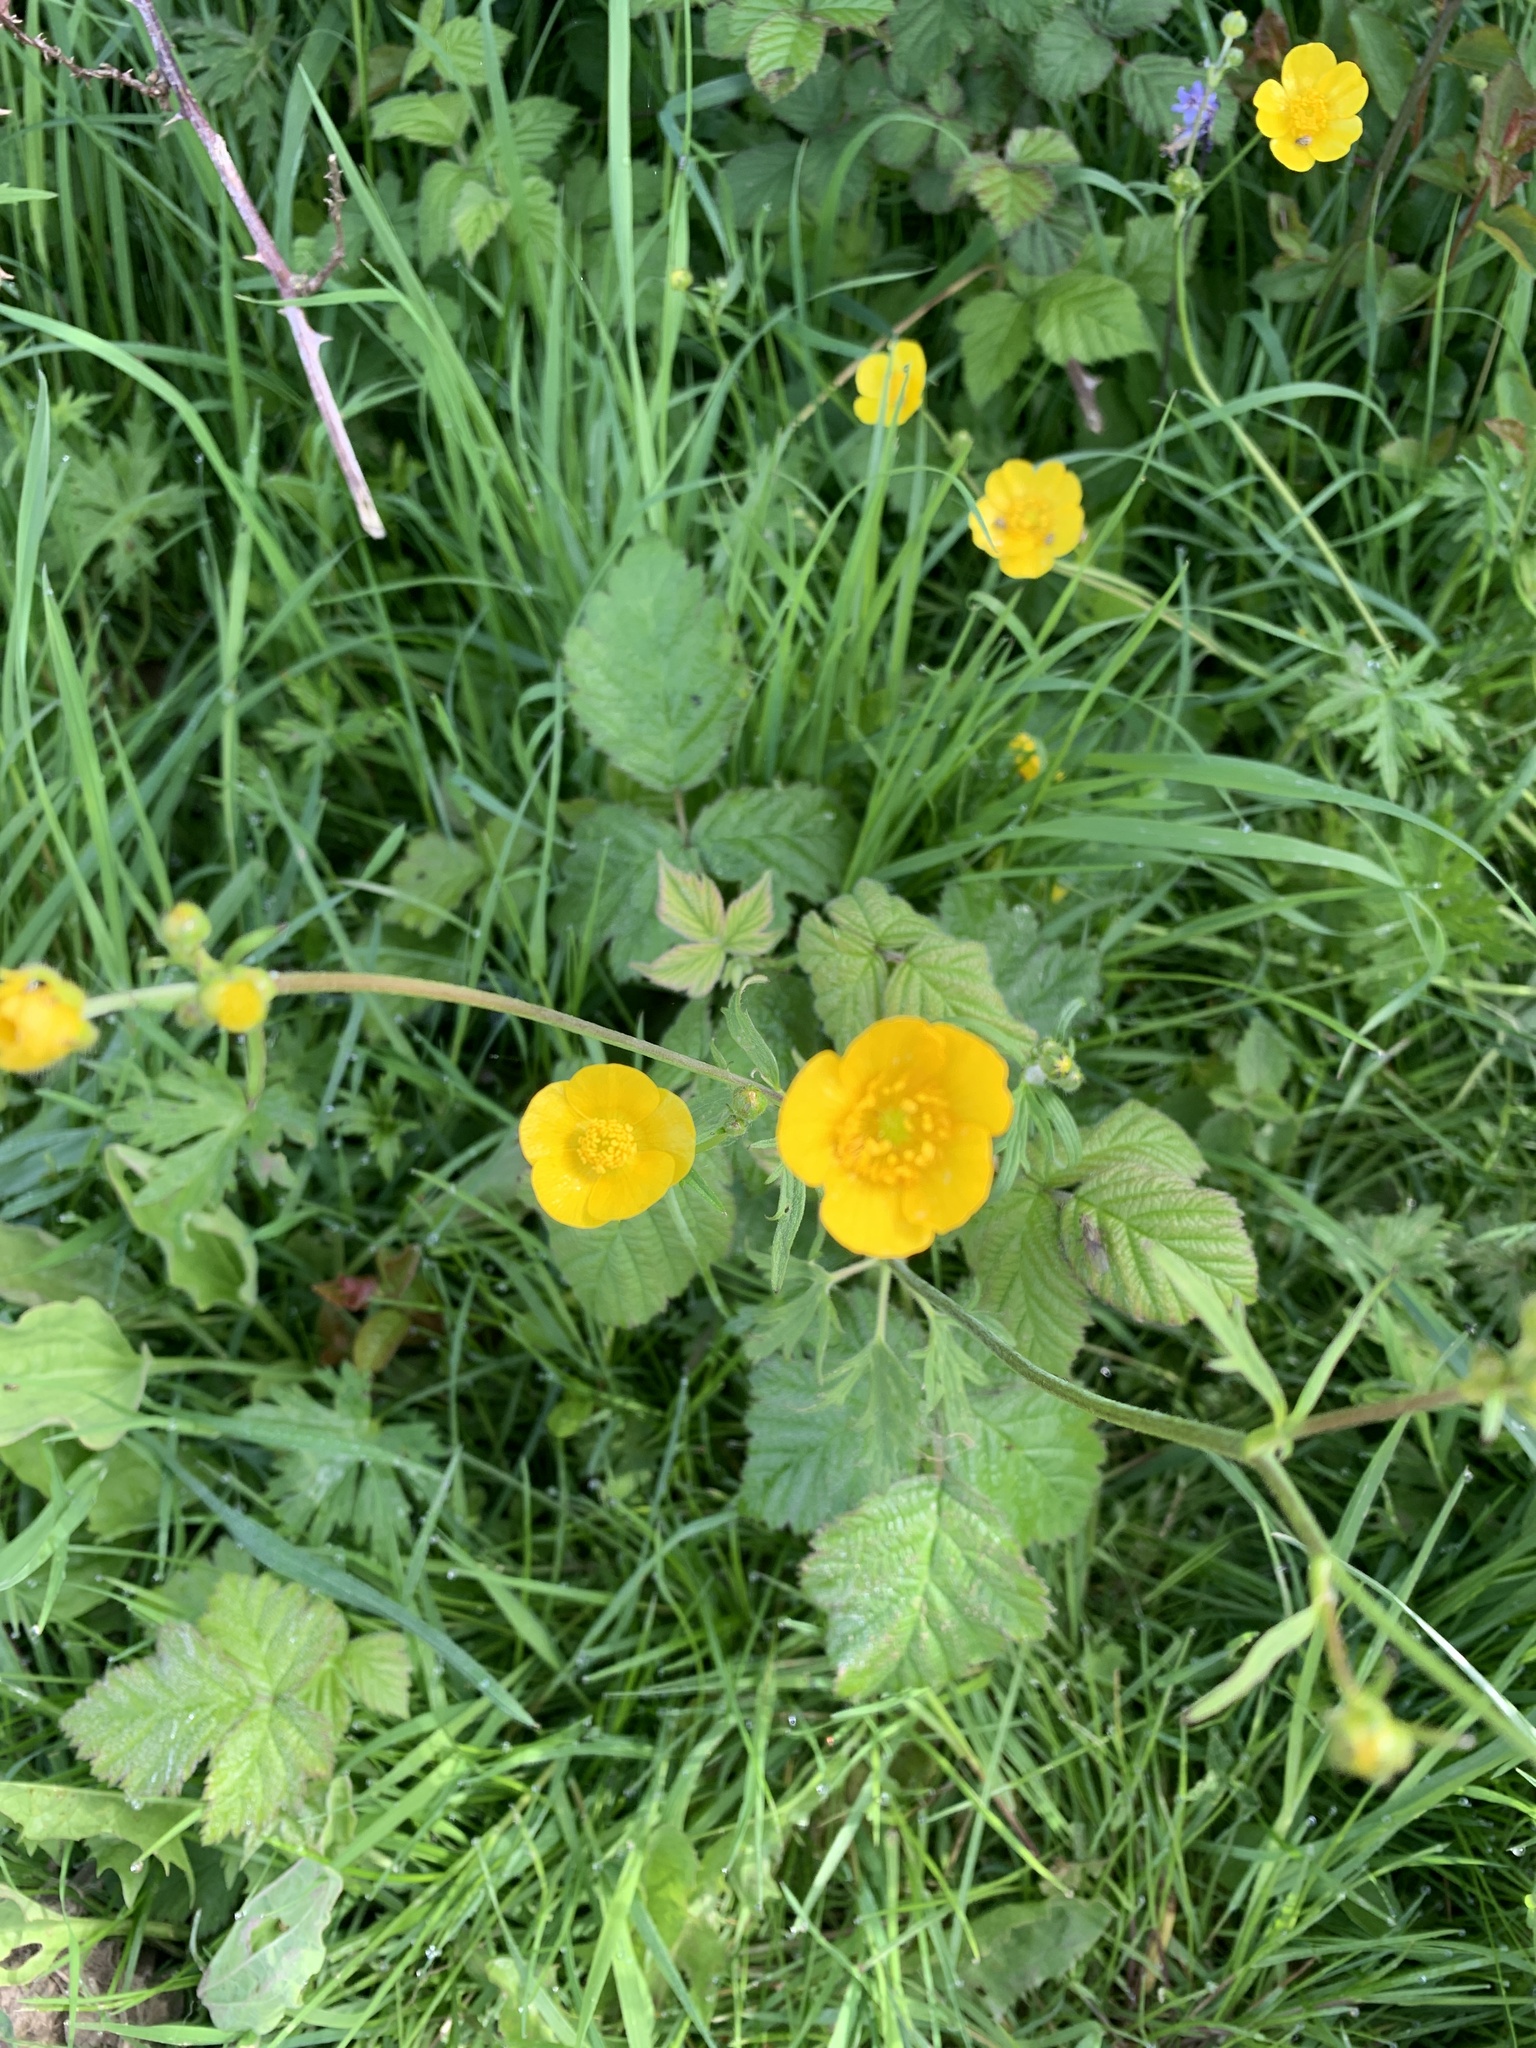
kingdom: Plantae
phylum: Tracheophyta
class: Magnoliopsida
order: Ranunculales
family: Ranunculaceae
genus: Ranunculus
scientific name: Ranunculus acris
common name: Meadow buttercup
